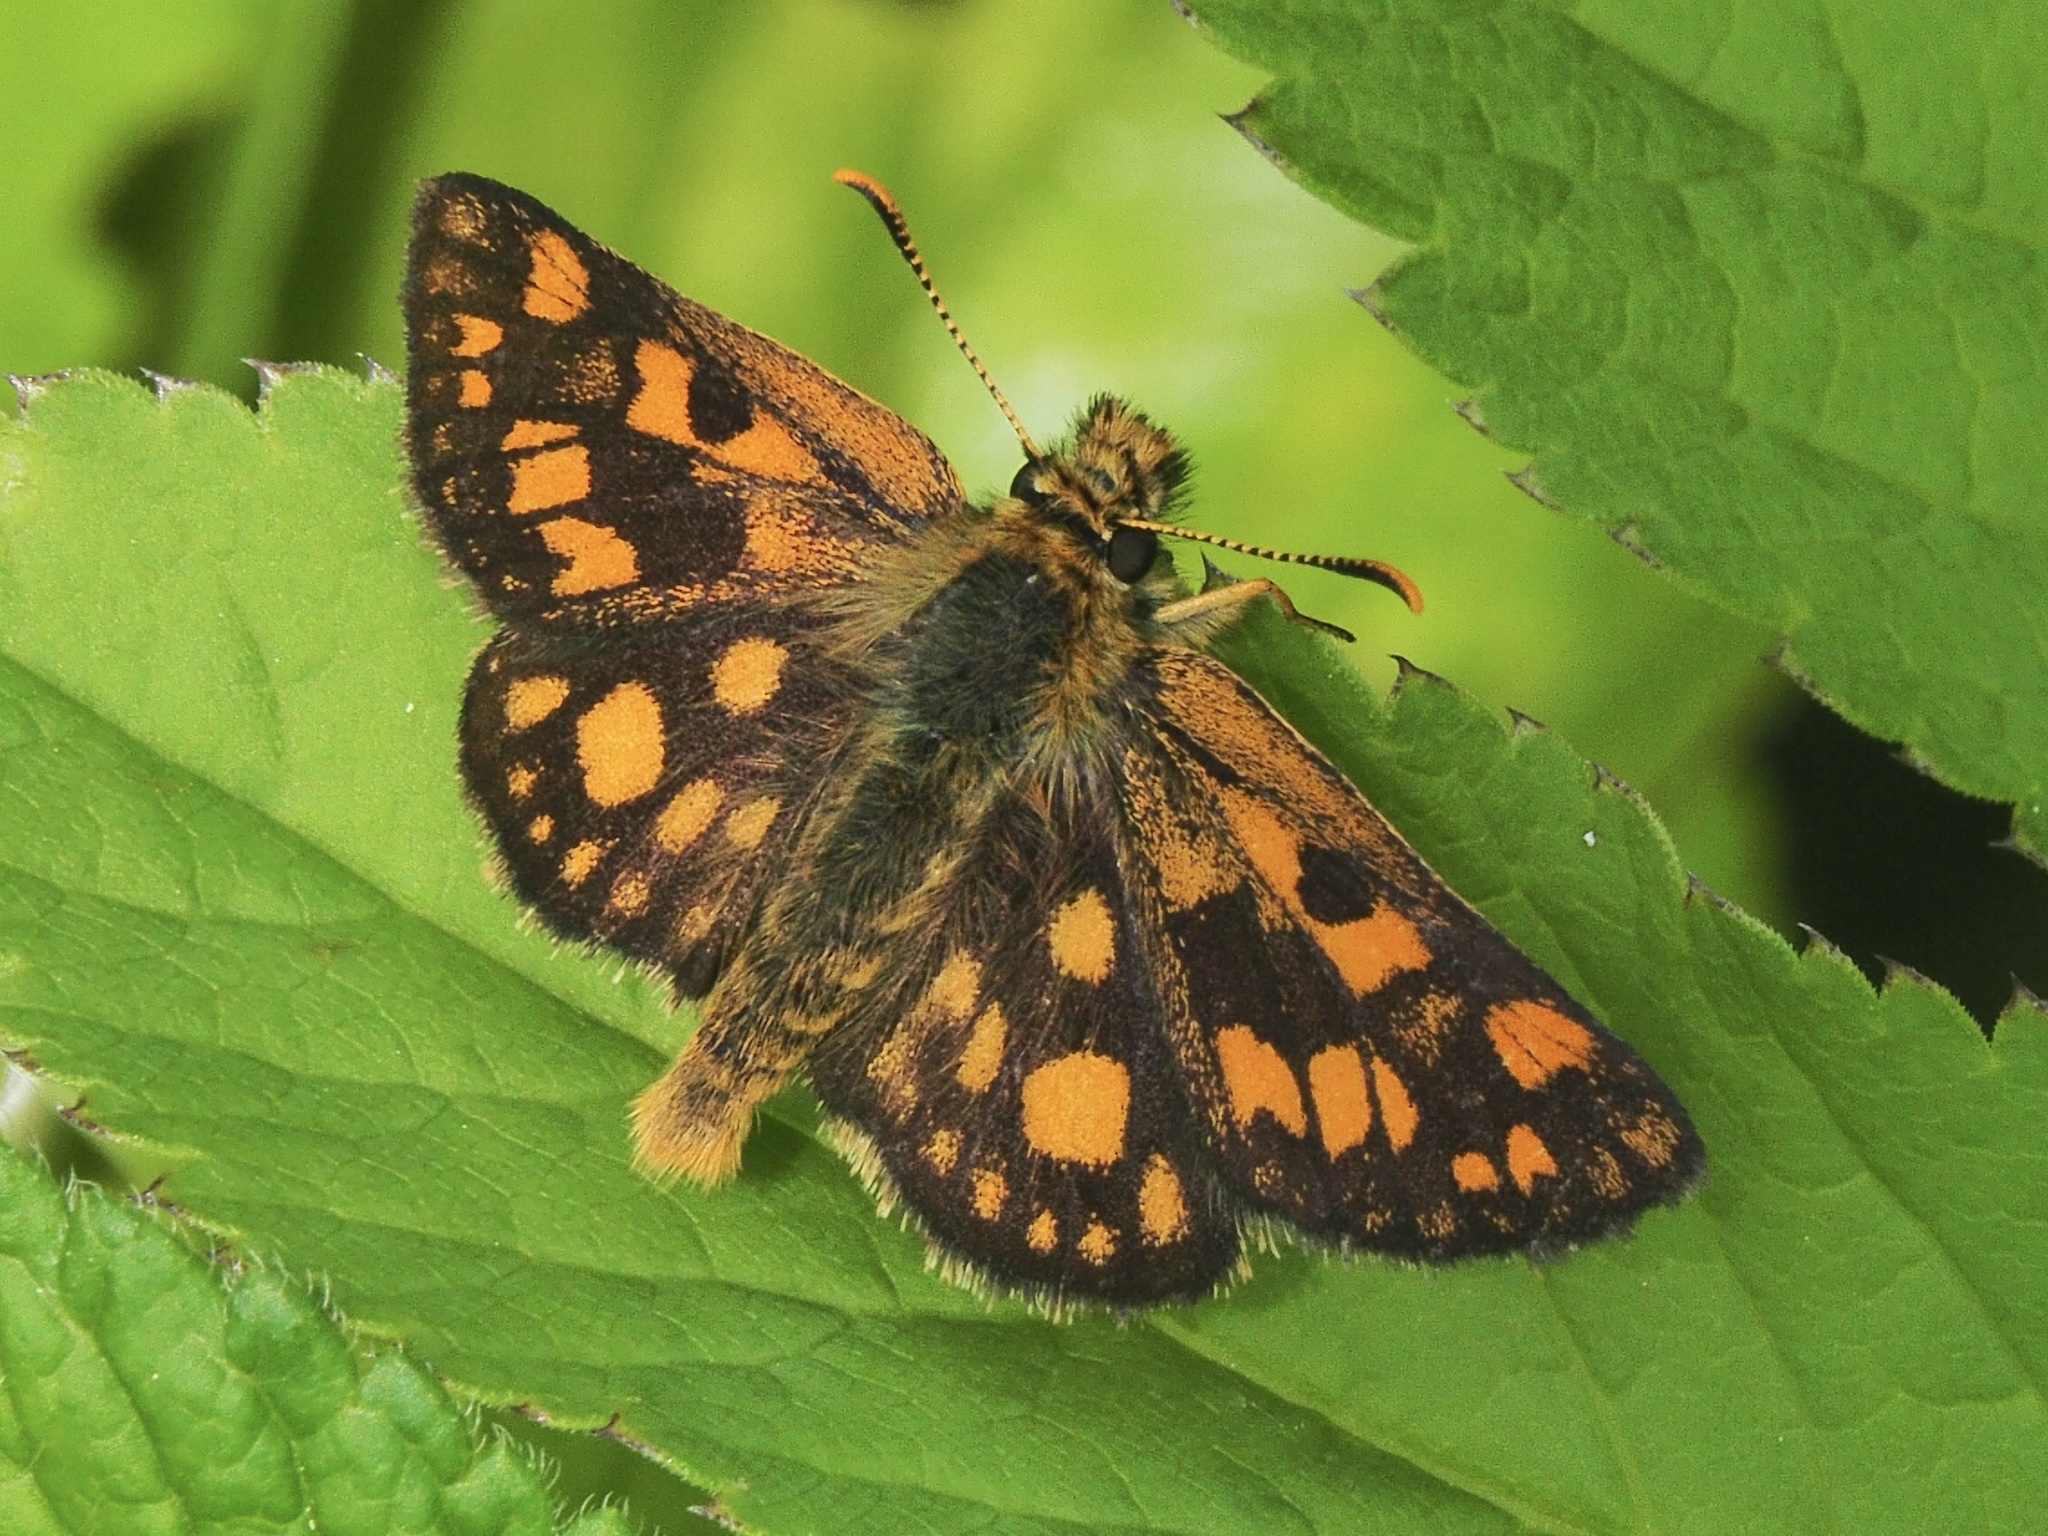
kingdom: Animalia
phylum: Arthropoda
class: Insecta
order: Lepidoptera
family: Hesperiidae
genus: Carterocephalus
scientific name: Carterocephalus palaemon
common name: Chequered skipper
